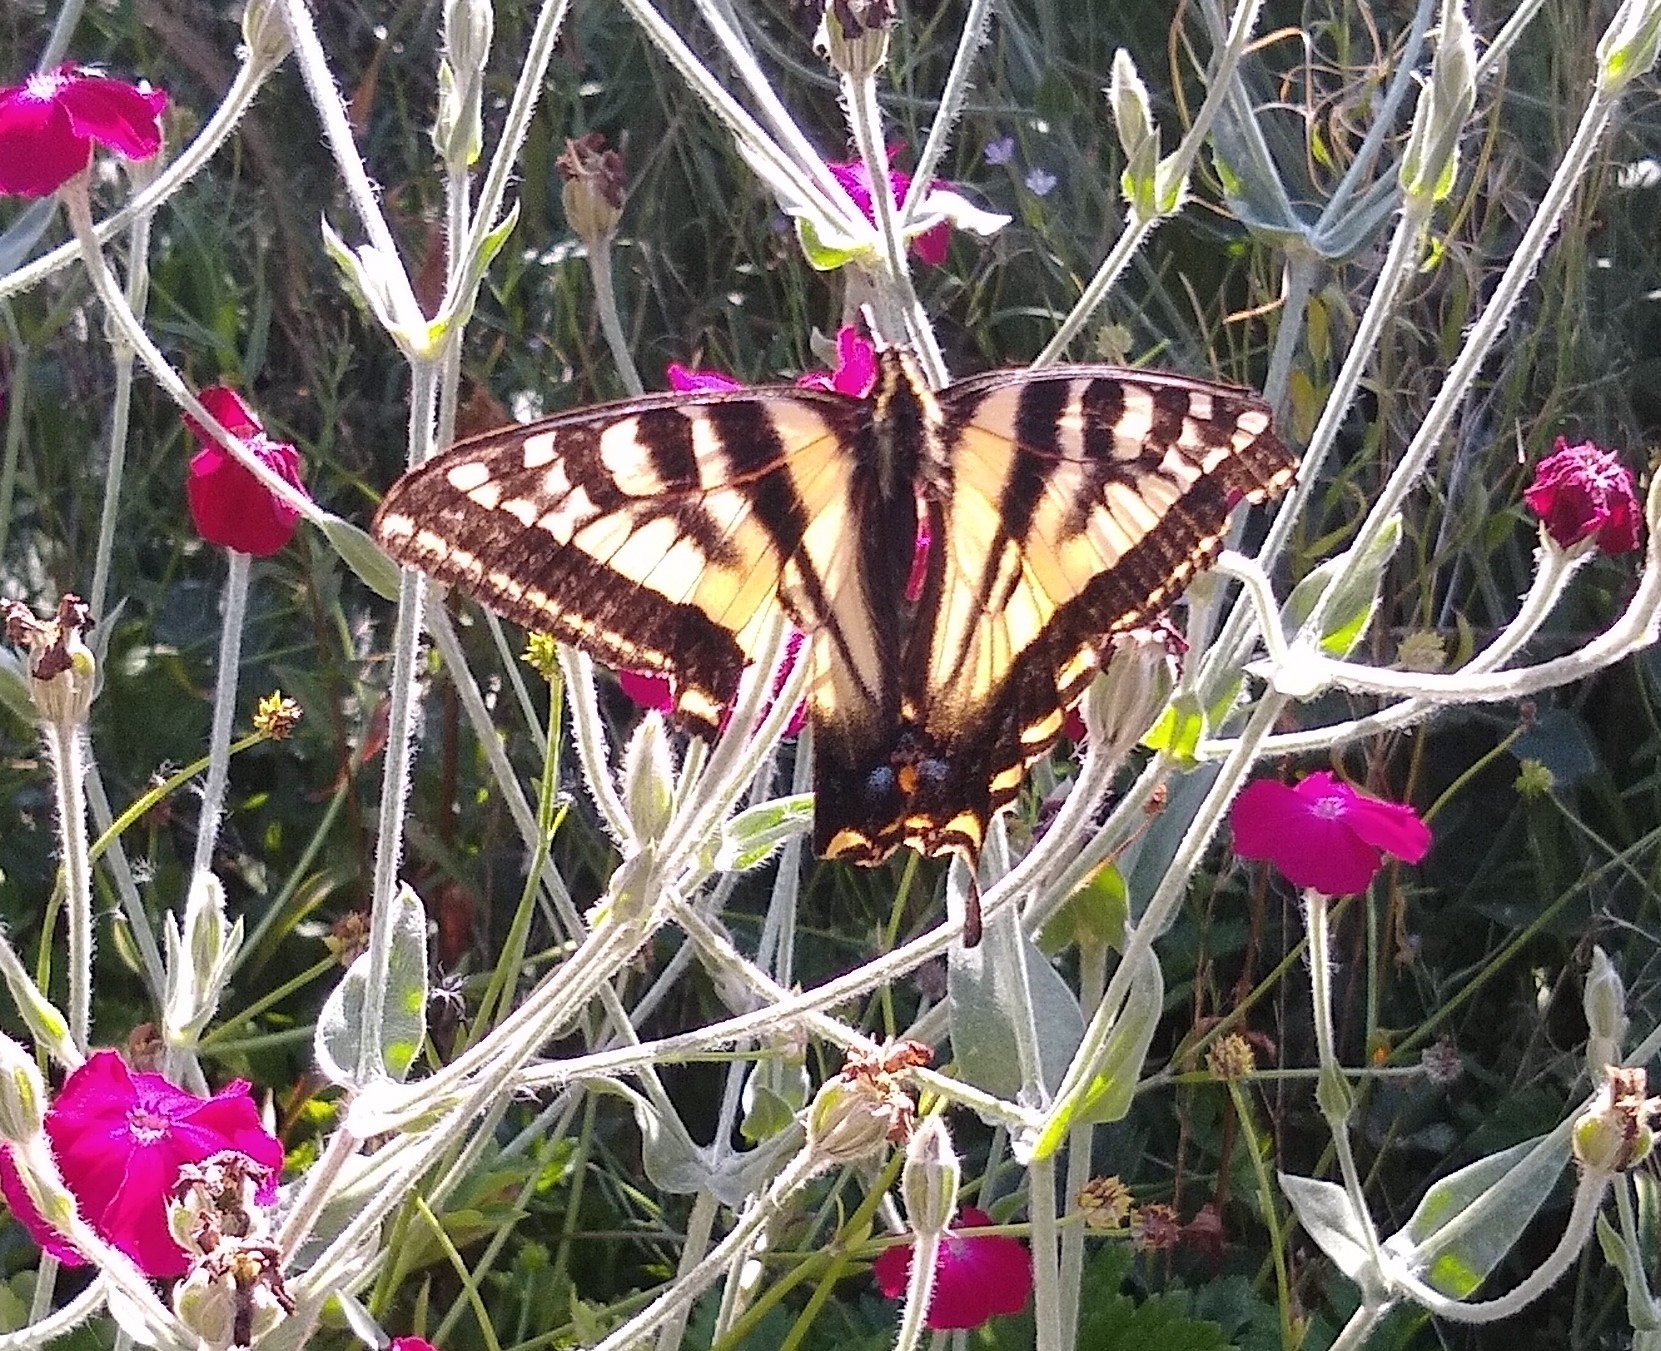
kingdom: Animalia
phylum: Arthropoda
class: Insecta
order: Lepidoptera
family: Papilionidae
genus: Papilio
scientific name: Papilio rutulus
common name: Western tiger swallowtail
